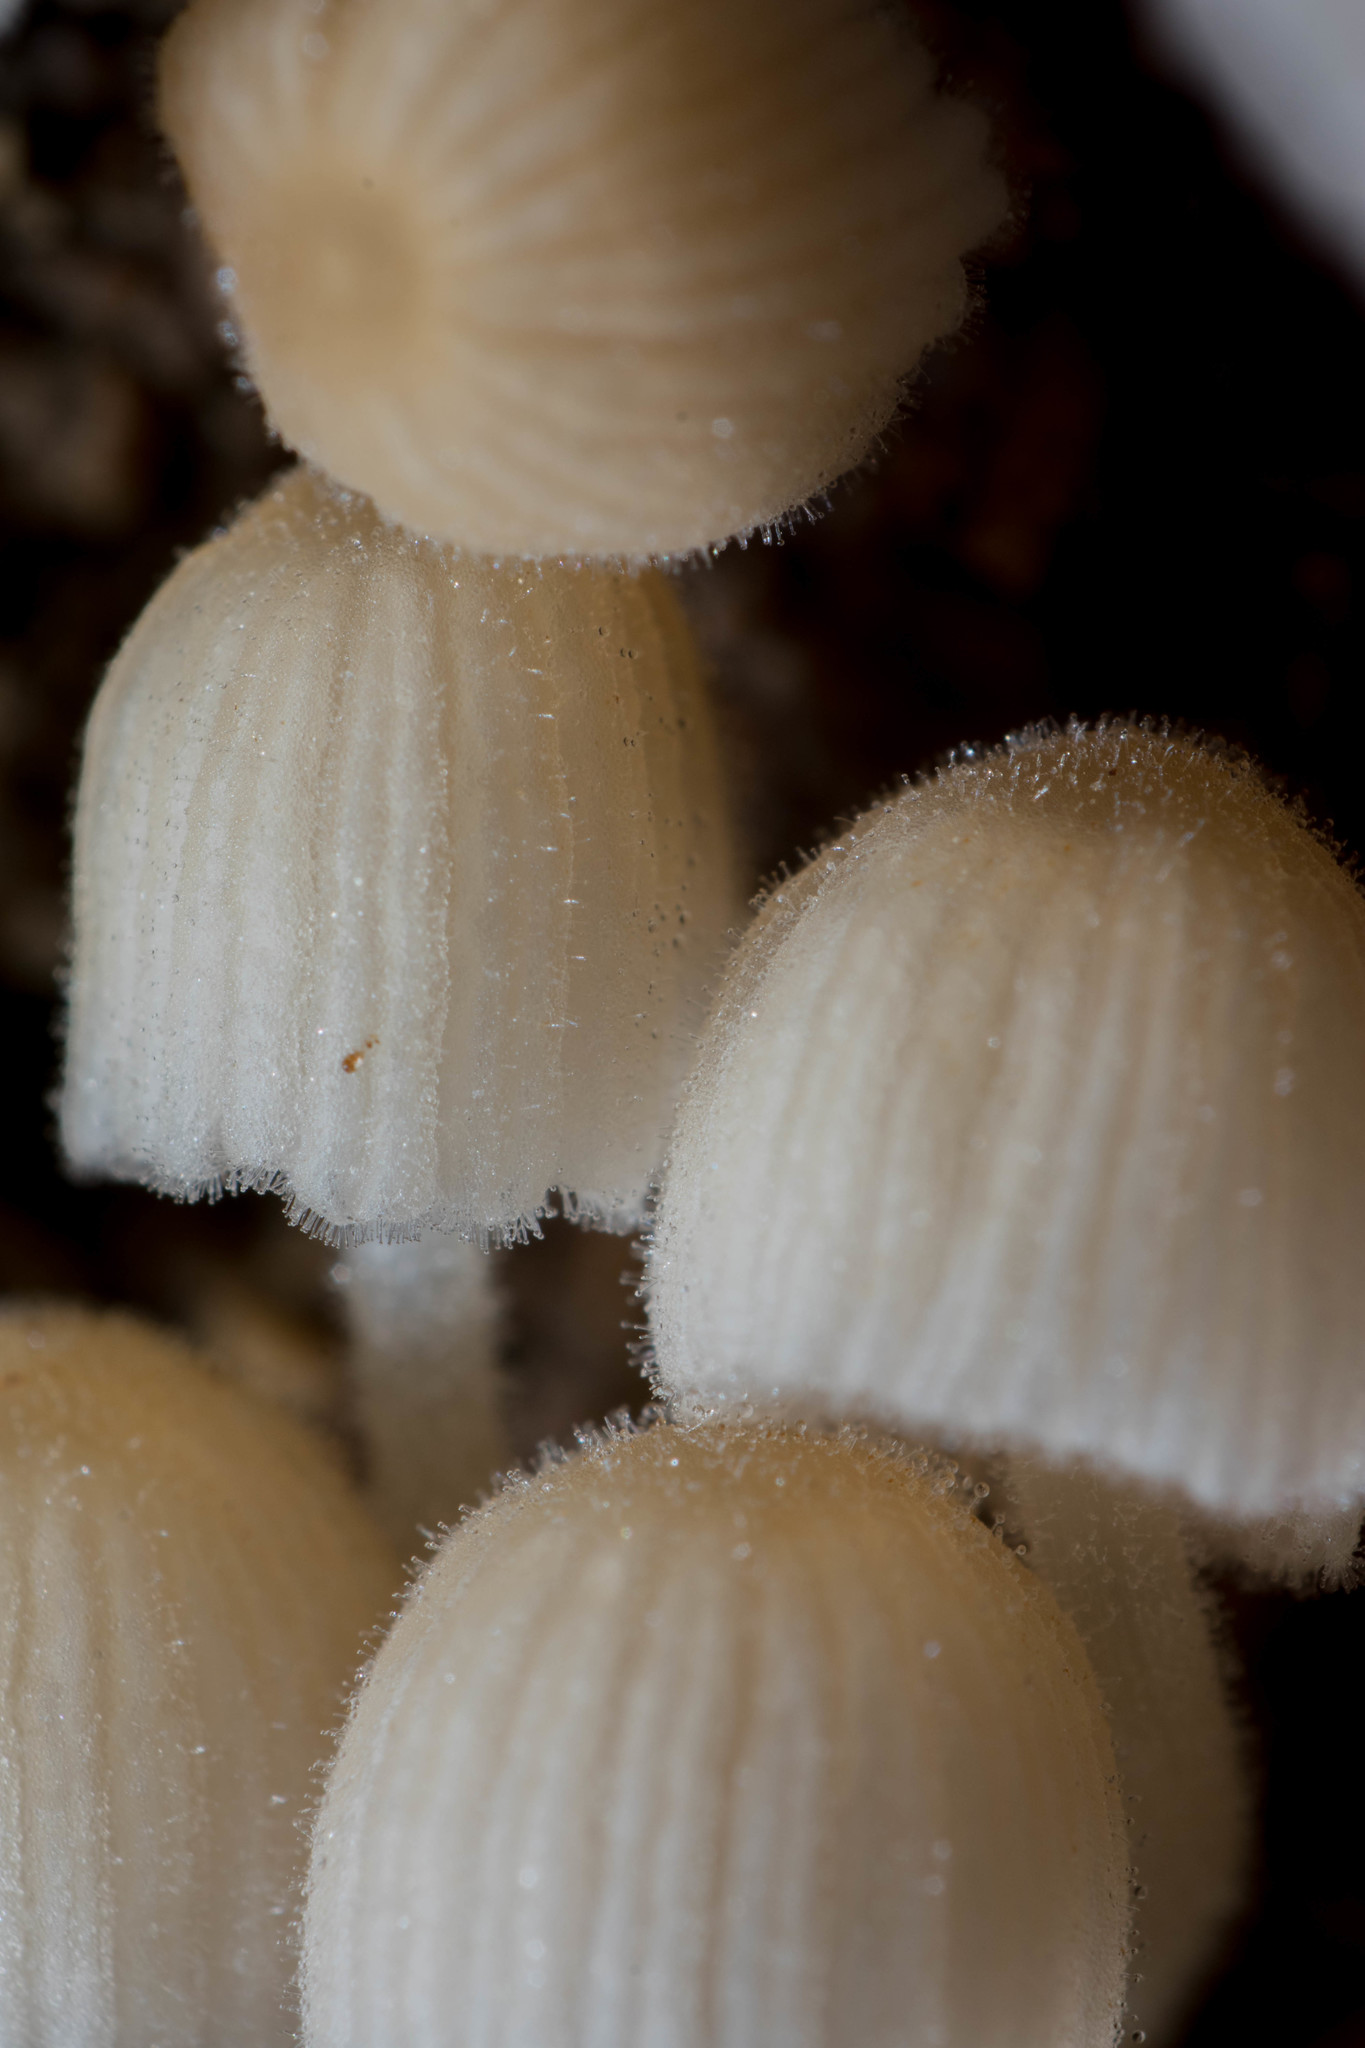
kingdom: Fungi
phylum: Basidiomycota
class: Agaricomycetes
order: Agaricales
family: Psathyrellaceae
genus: Coprinellus
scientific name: Coprinellus disseminatus
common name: Fairies' bonnets
